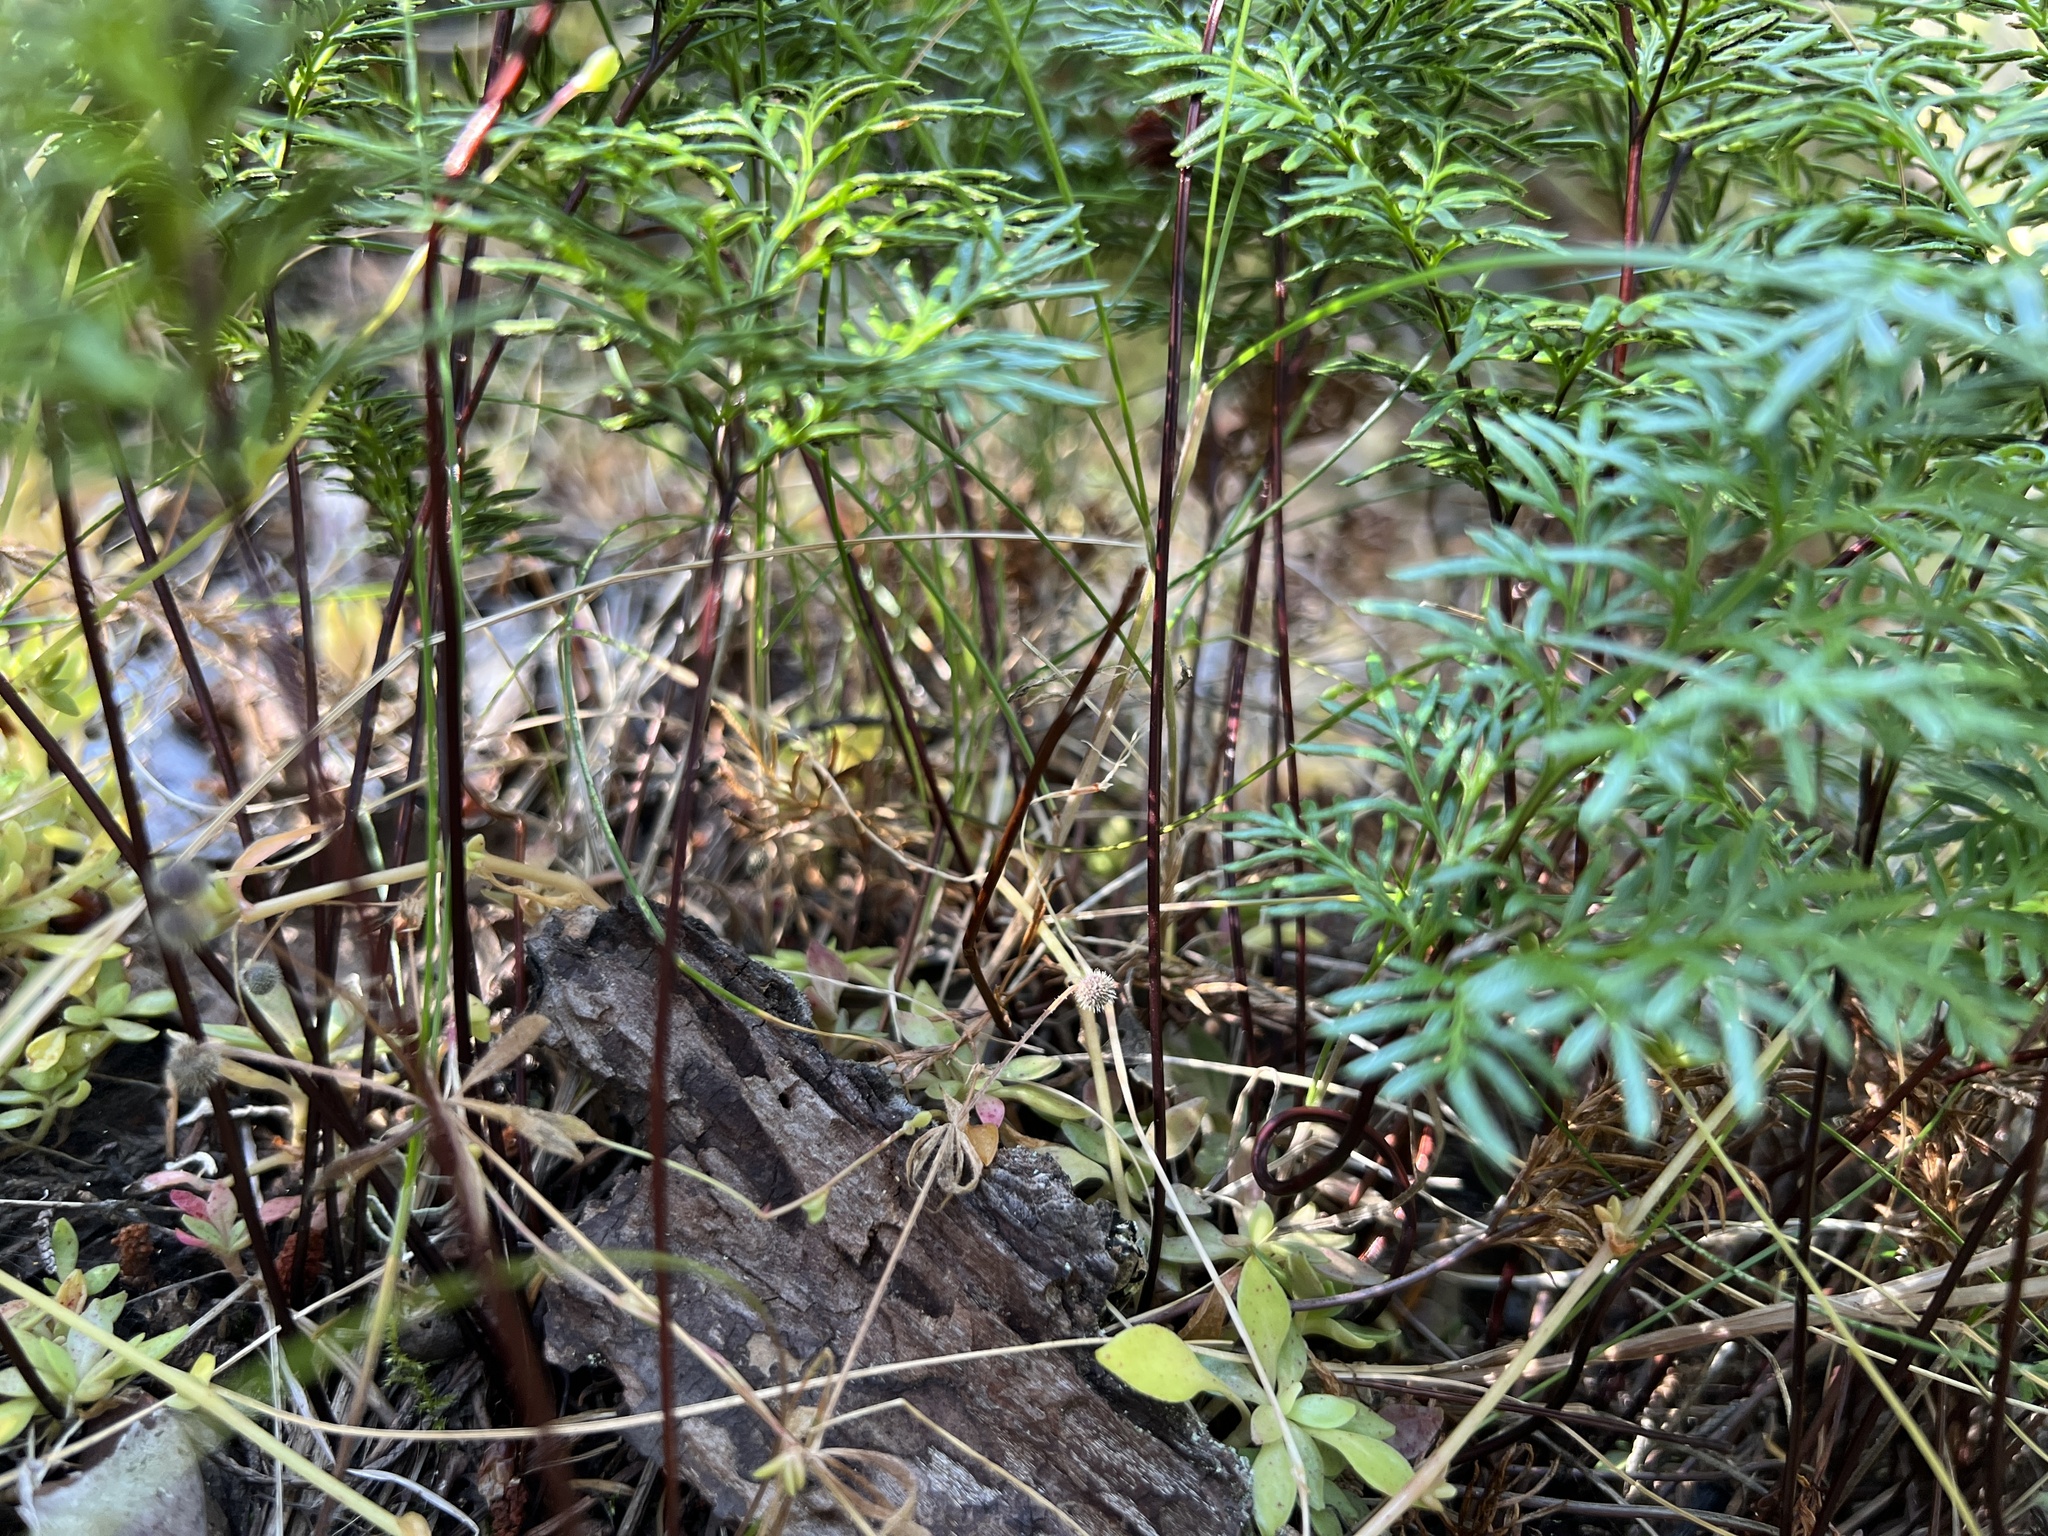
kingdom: Plantae
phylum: Tracheophyta
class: Polypodiopsida
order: Polypodiales
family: Pteridaceae
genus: Aspidotis
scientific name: Aspidotis densa
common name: Indian's dream
